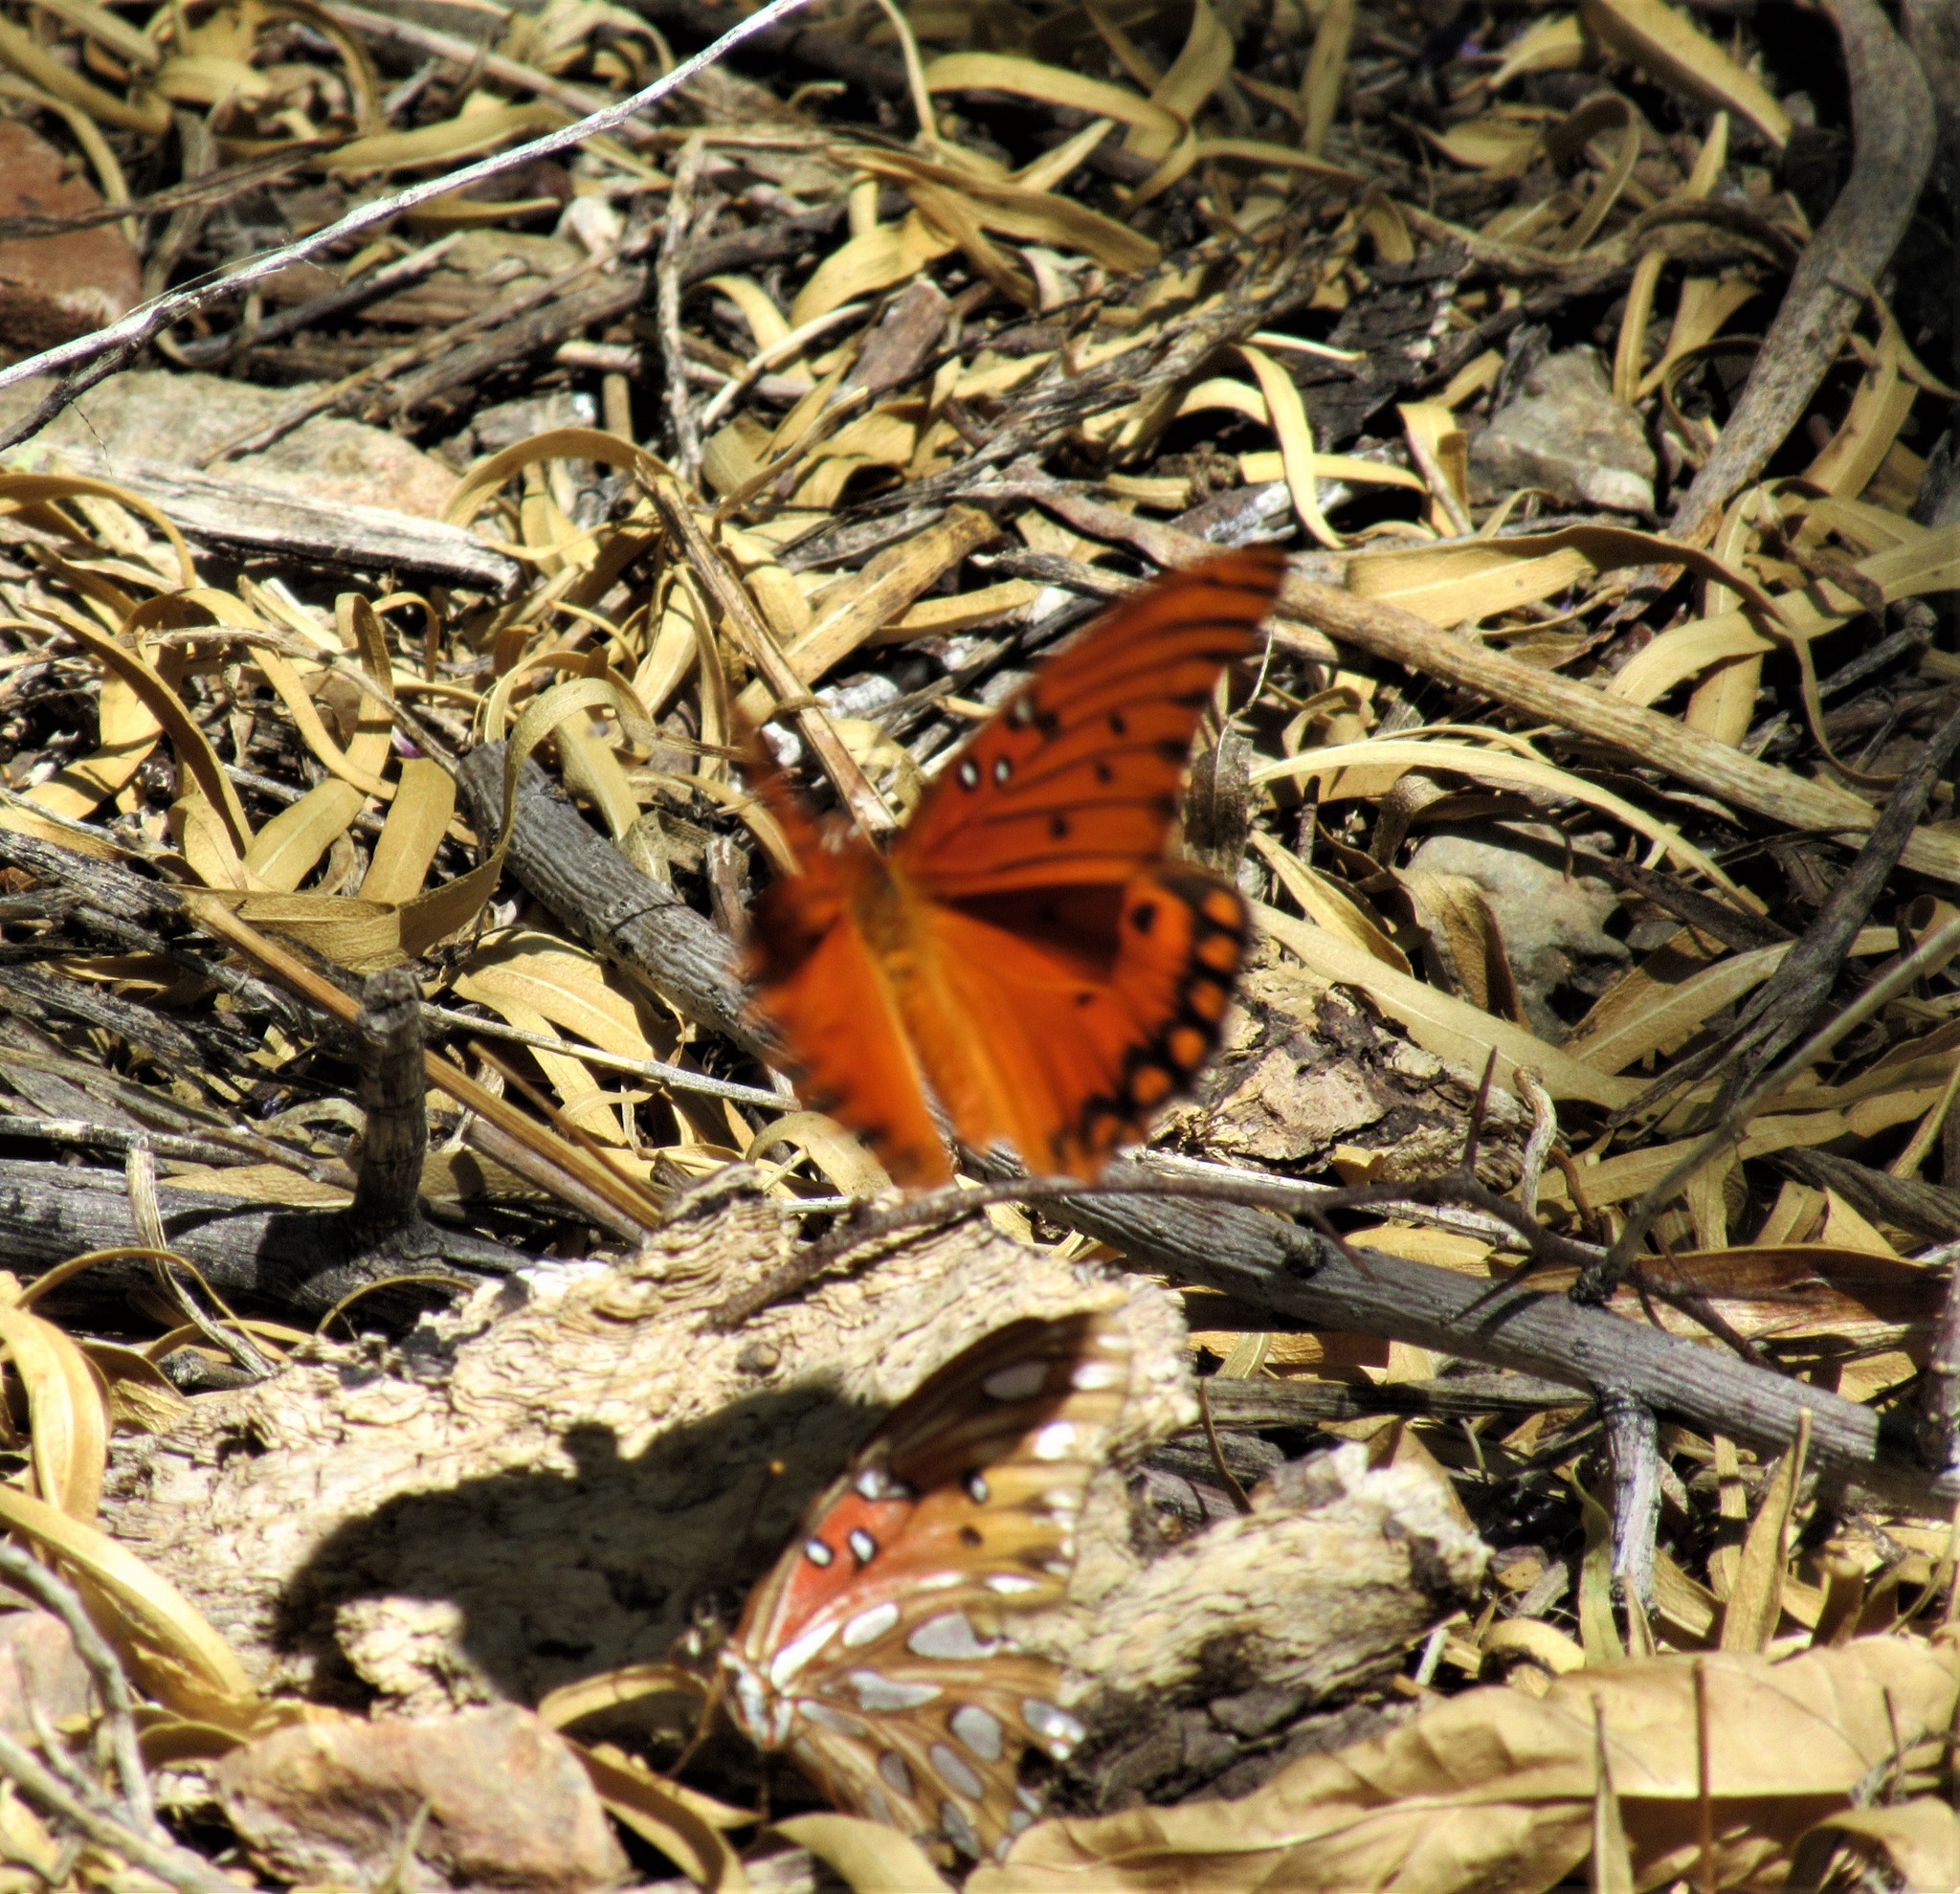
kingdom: Animalia
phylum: Arthropoda
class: Insecta
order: Lepidoptera
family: Nymphalidae
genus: Dione
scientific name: Dione vanillae
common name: Gulf fritillary
